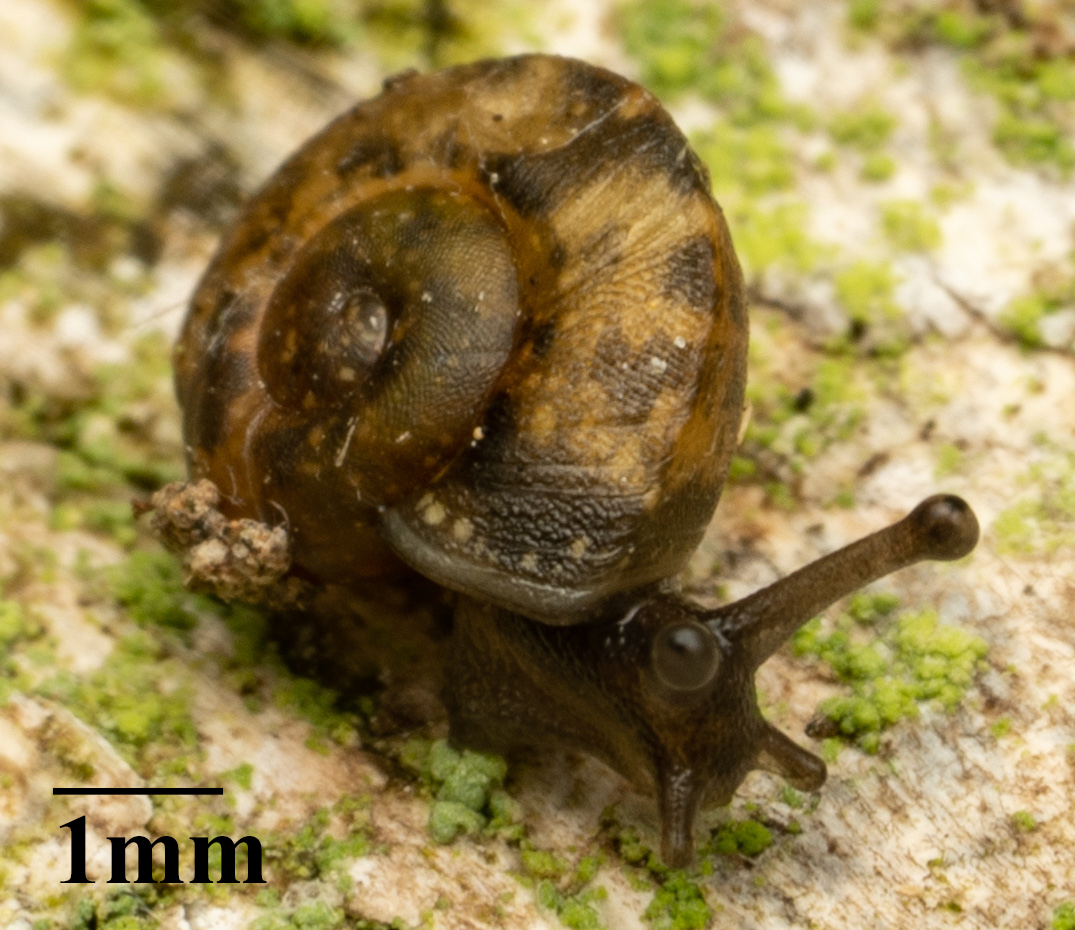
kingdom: Animalia
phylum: Mollusca
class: Gastropoda
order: Stylommatophora
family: Helicidae
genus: Helicigona
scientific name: Helicigona lapicida
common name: Lapidary snail
